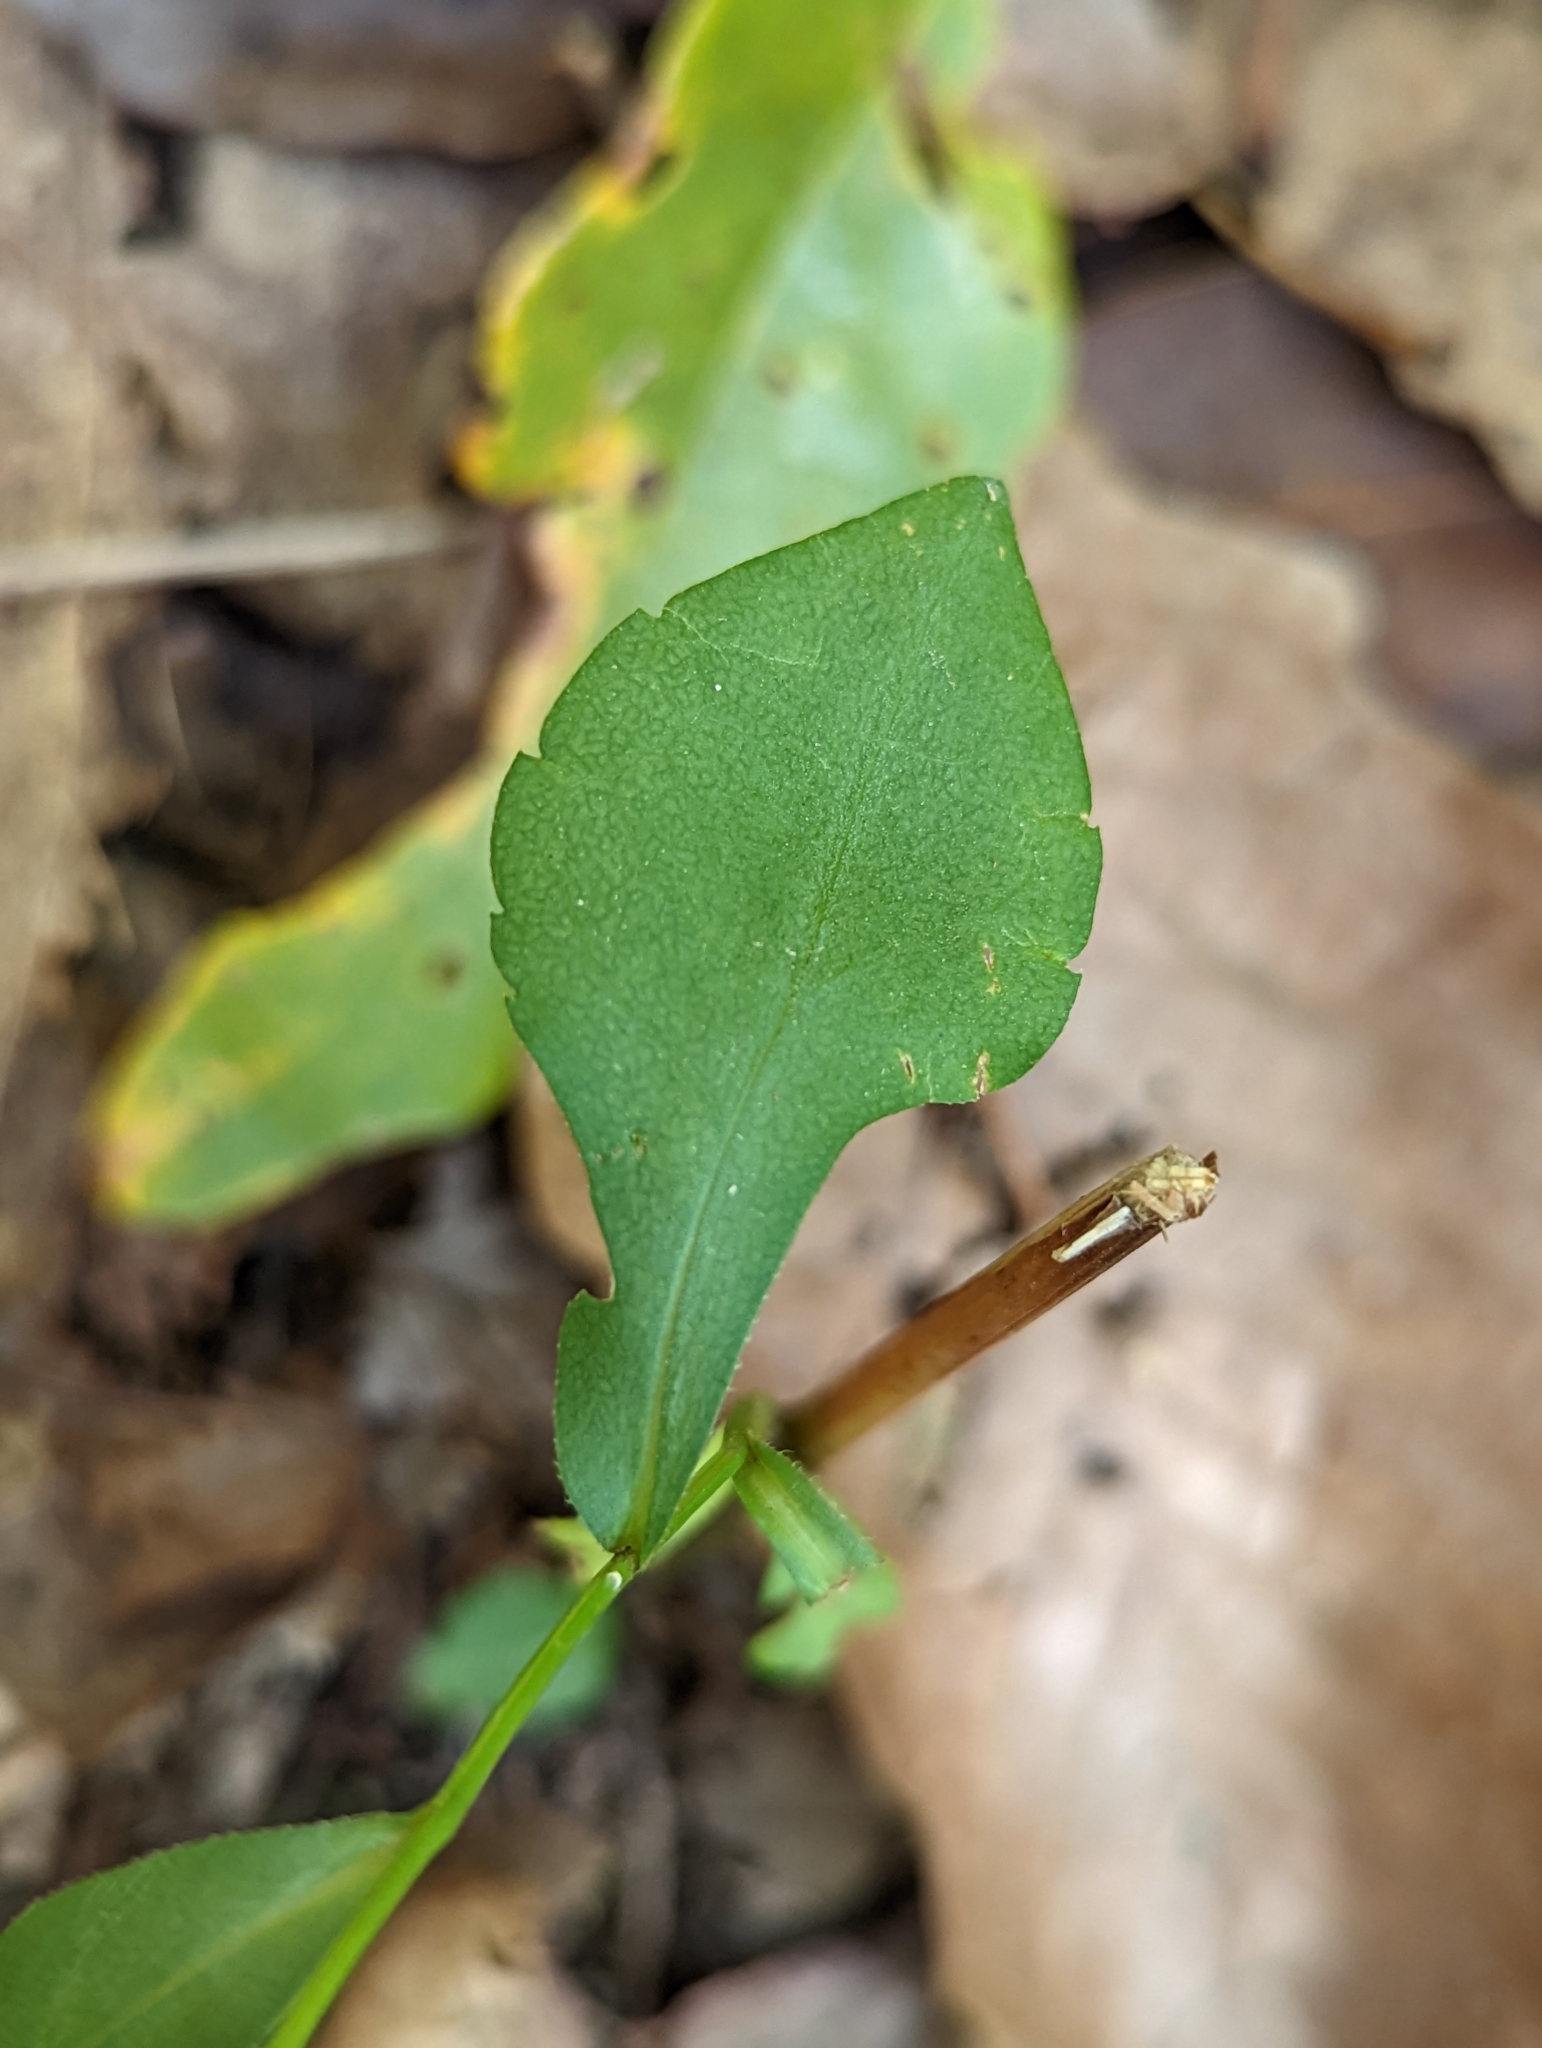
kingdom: Plantae
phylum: Tracheophyta
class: Magnoliopsida
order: Asterales
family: Asteraceae
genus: Symphyotrichum
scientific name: Symphyotrichum retroflexum
